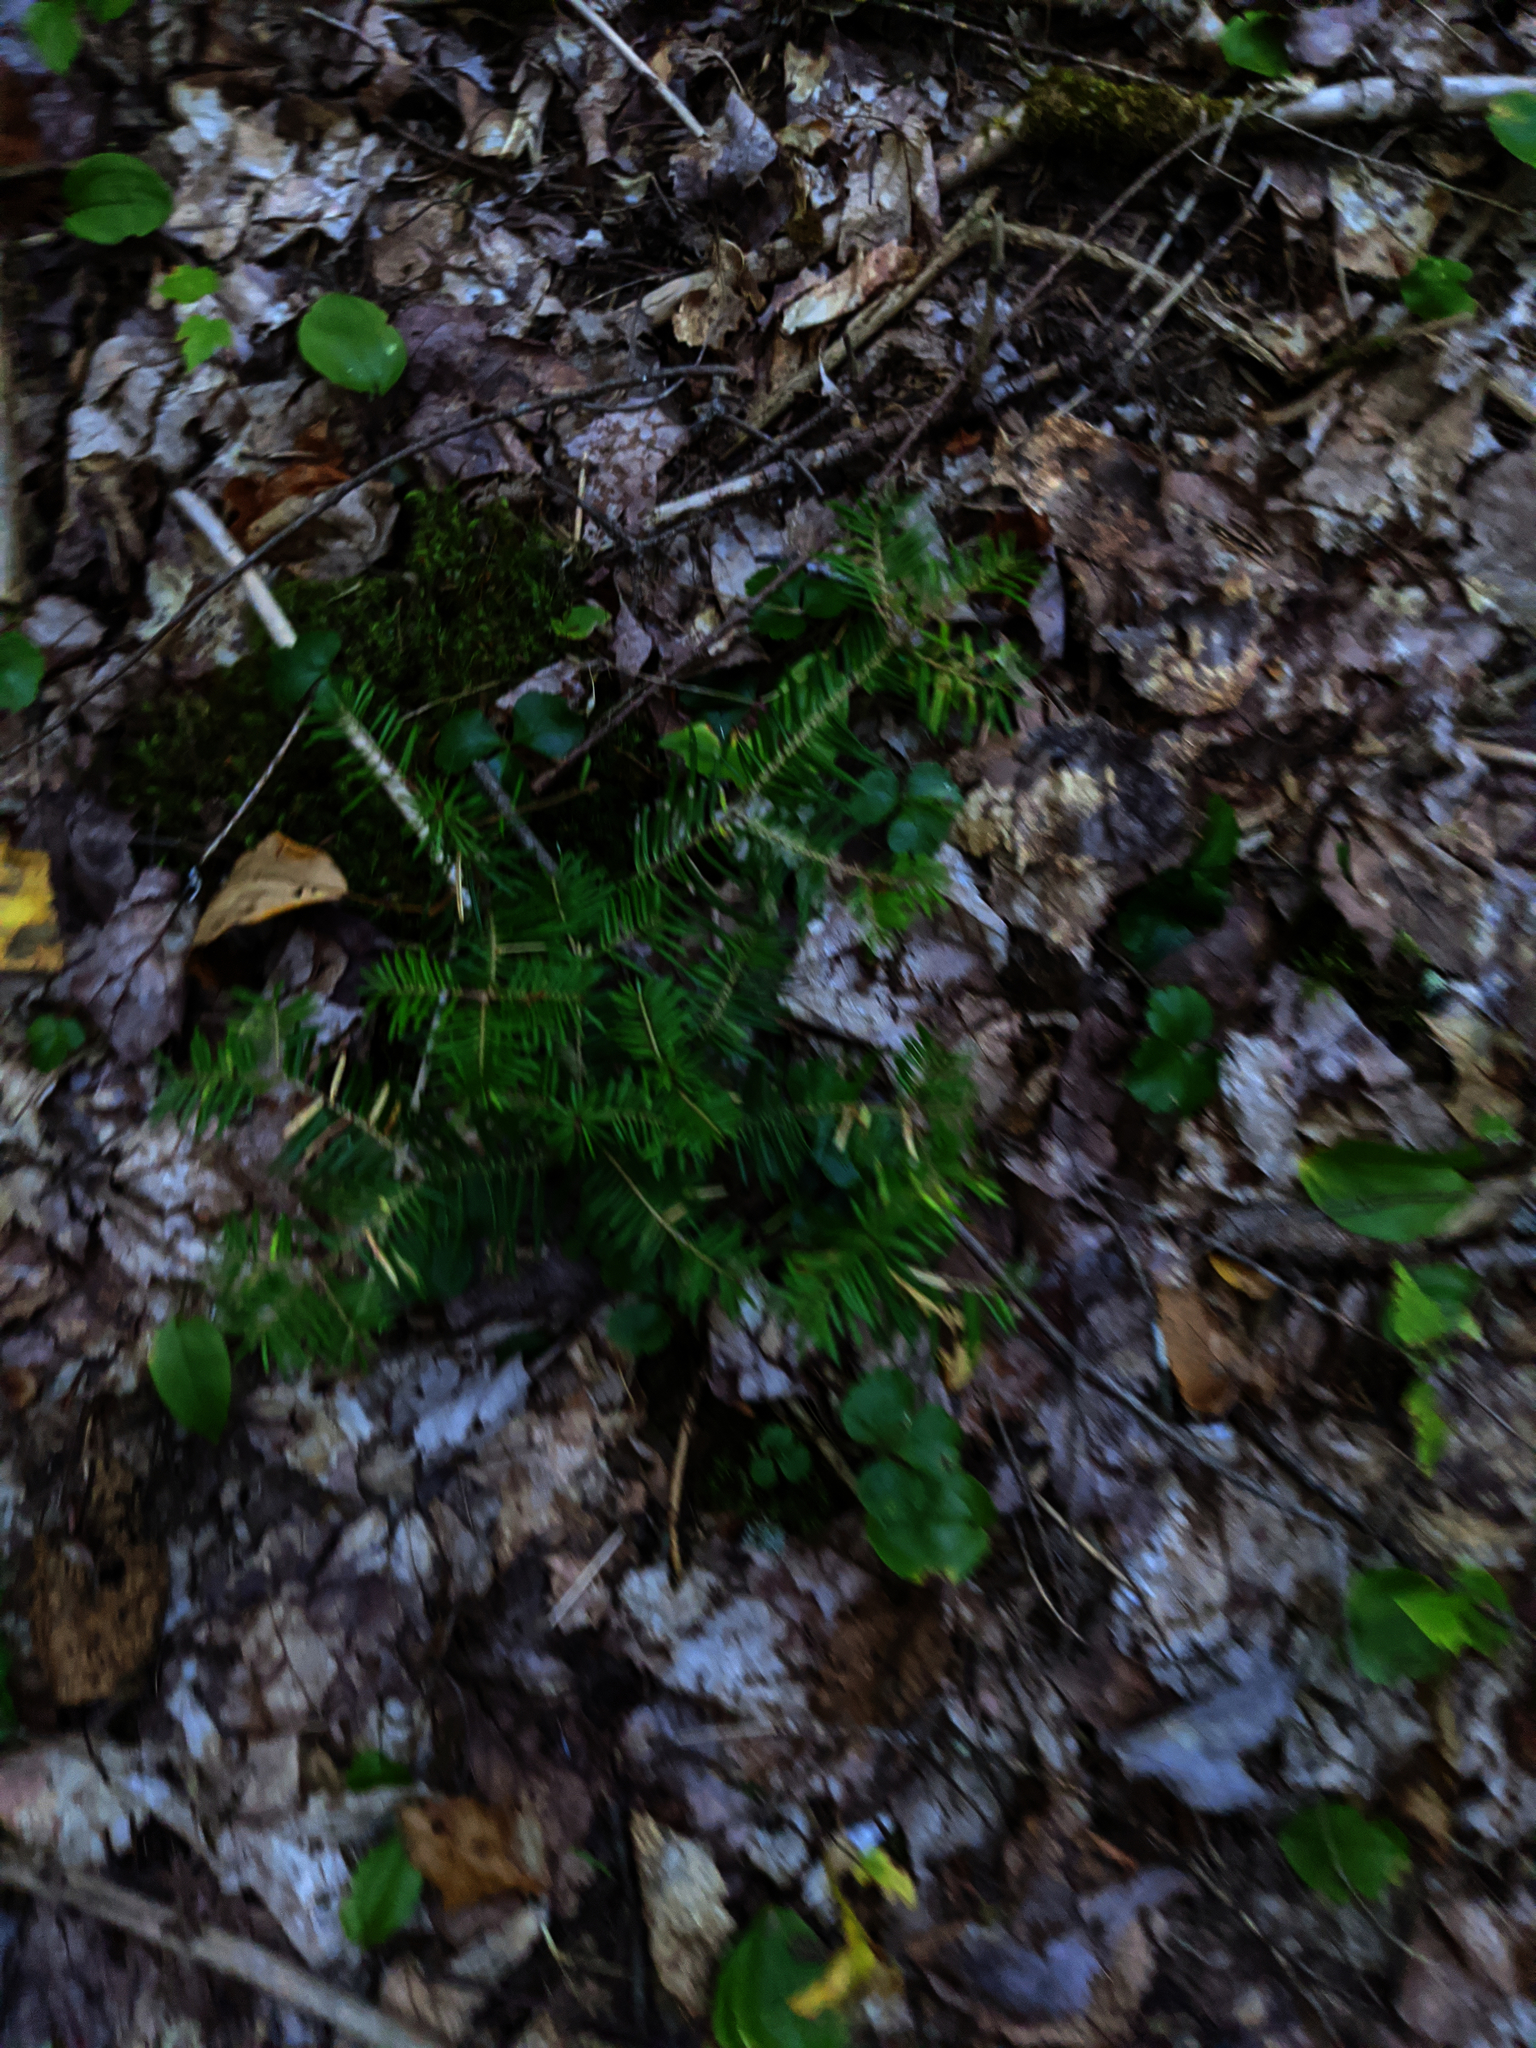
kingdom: Plantae
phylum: Tracheophyta
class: Magnoliopsida
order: Ranunculales
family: Ranunculaceae
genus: Coptis
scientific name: Coptis trifolia
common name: Canker-root
